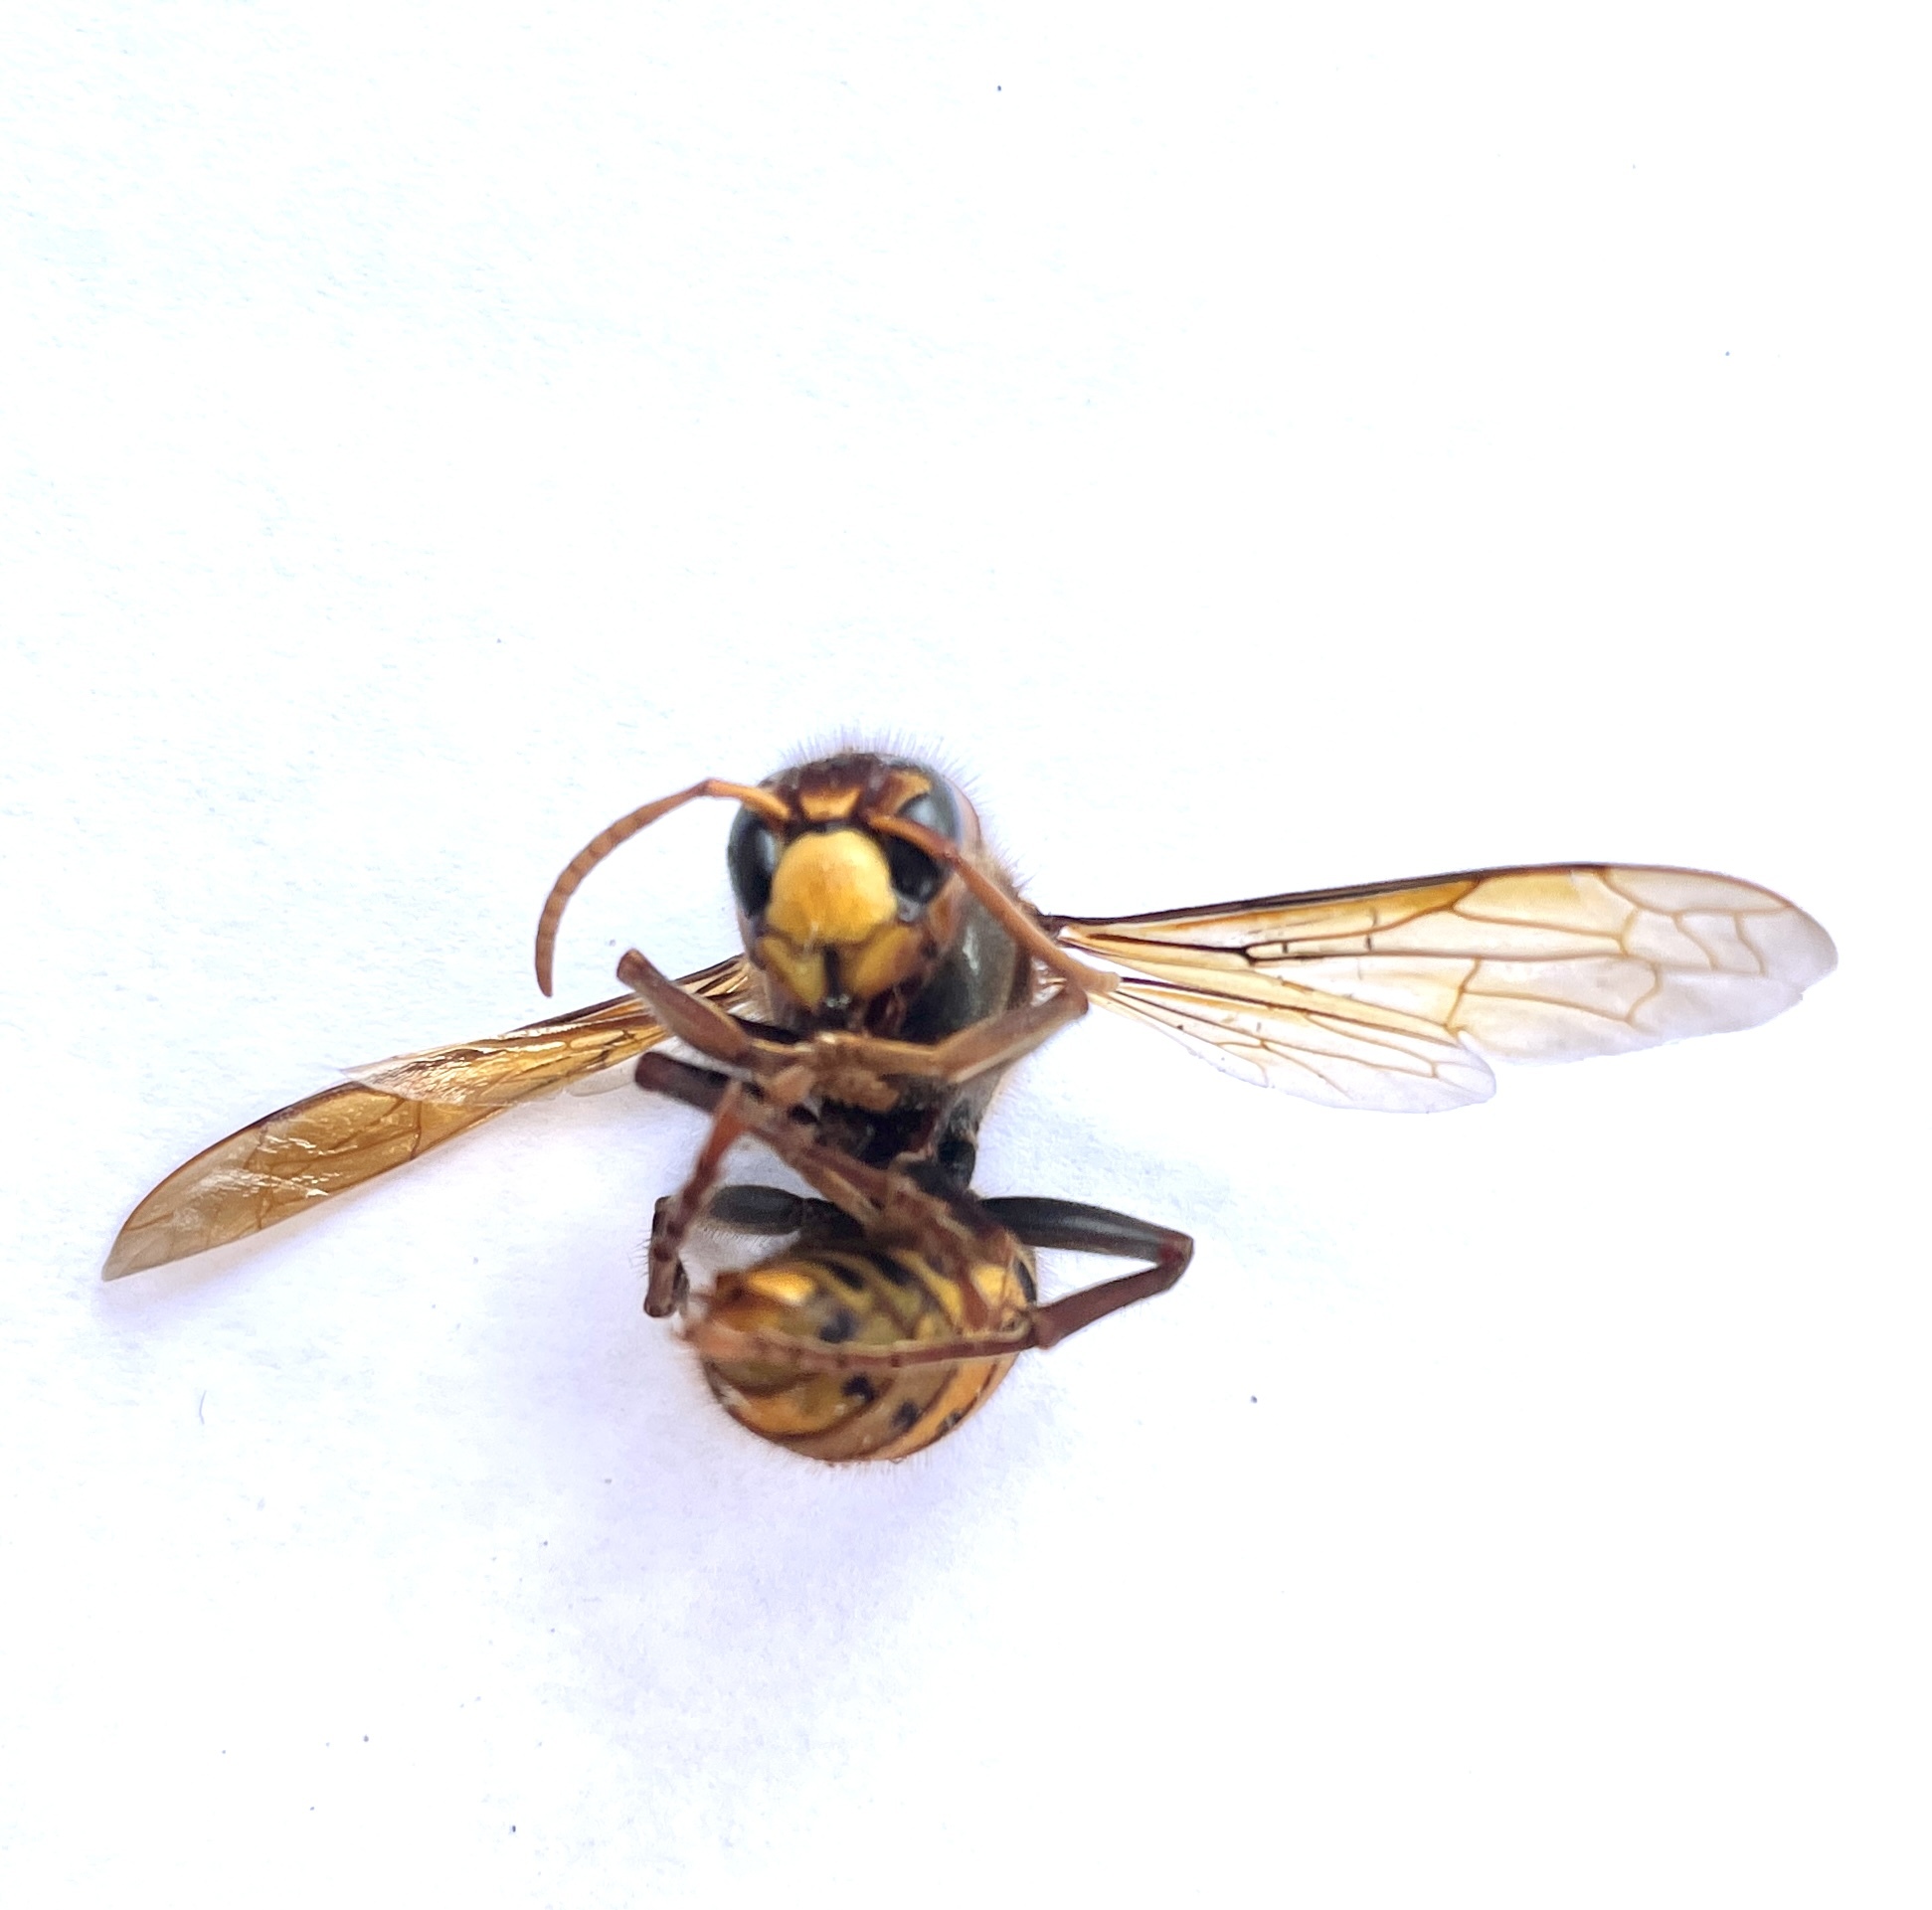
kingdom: Animalia
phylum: Arthropoda
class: Insecta
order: Hymenoptera
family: Vespidae
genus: Vespa
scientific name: Vespa crabro
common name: Hornet
